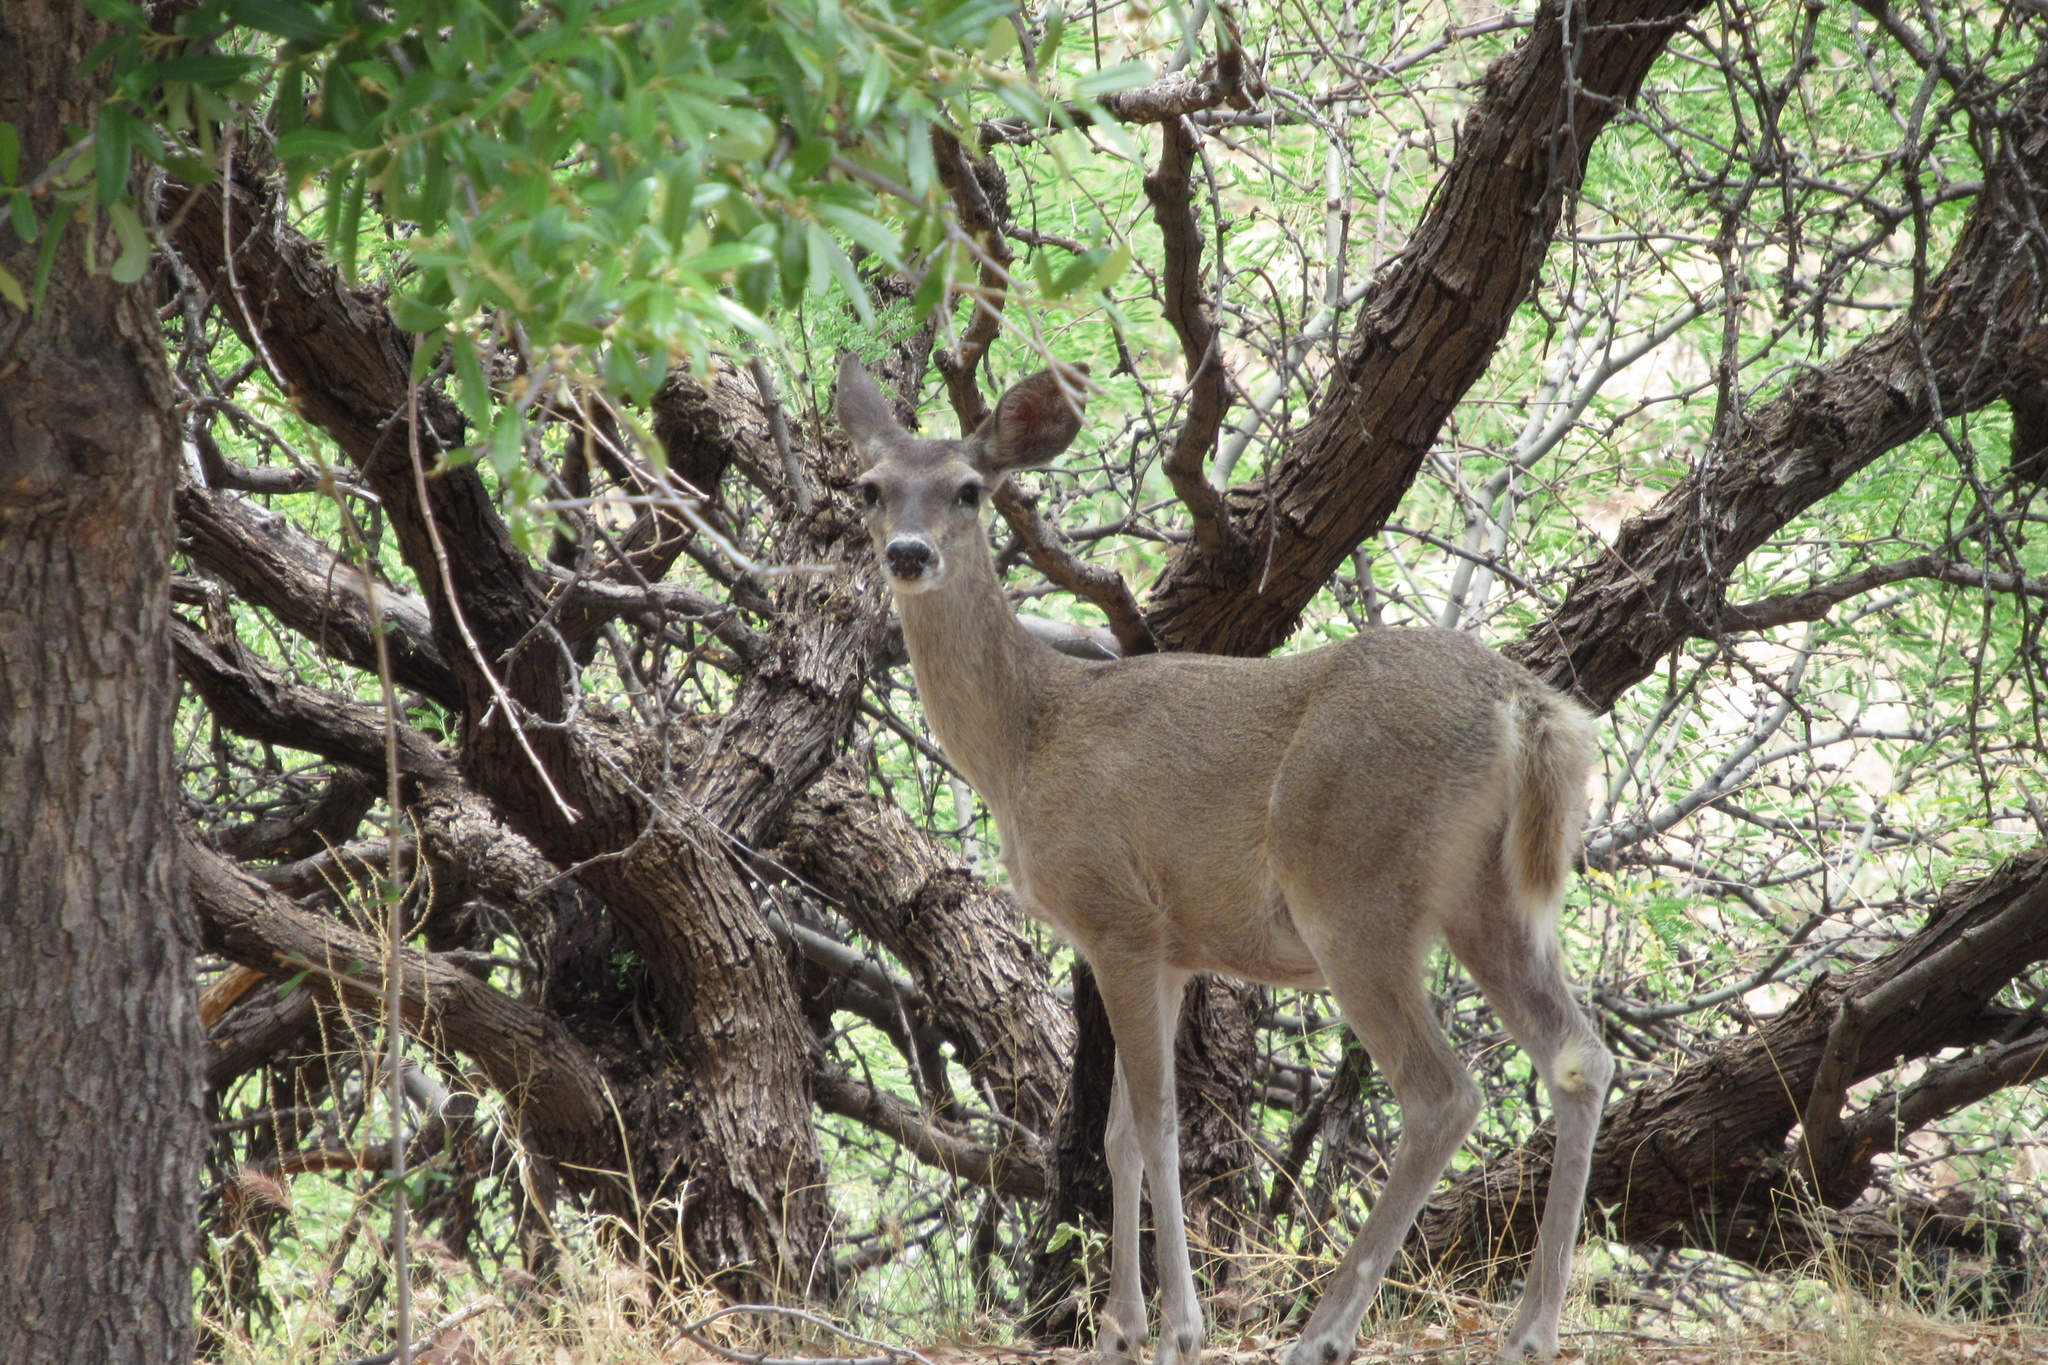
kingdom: Animalia
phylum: Chordata
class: Mammalia
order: Artiodactyla
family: Cervidae
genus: Odocoileus
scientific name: Odocoileus virginianus
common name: White-tailed deer
